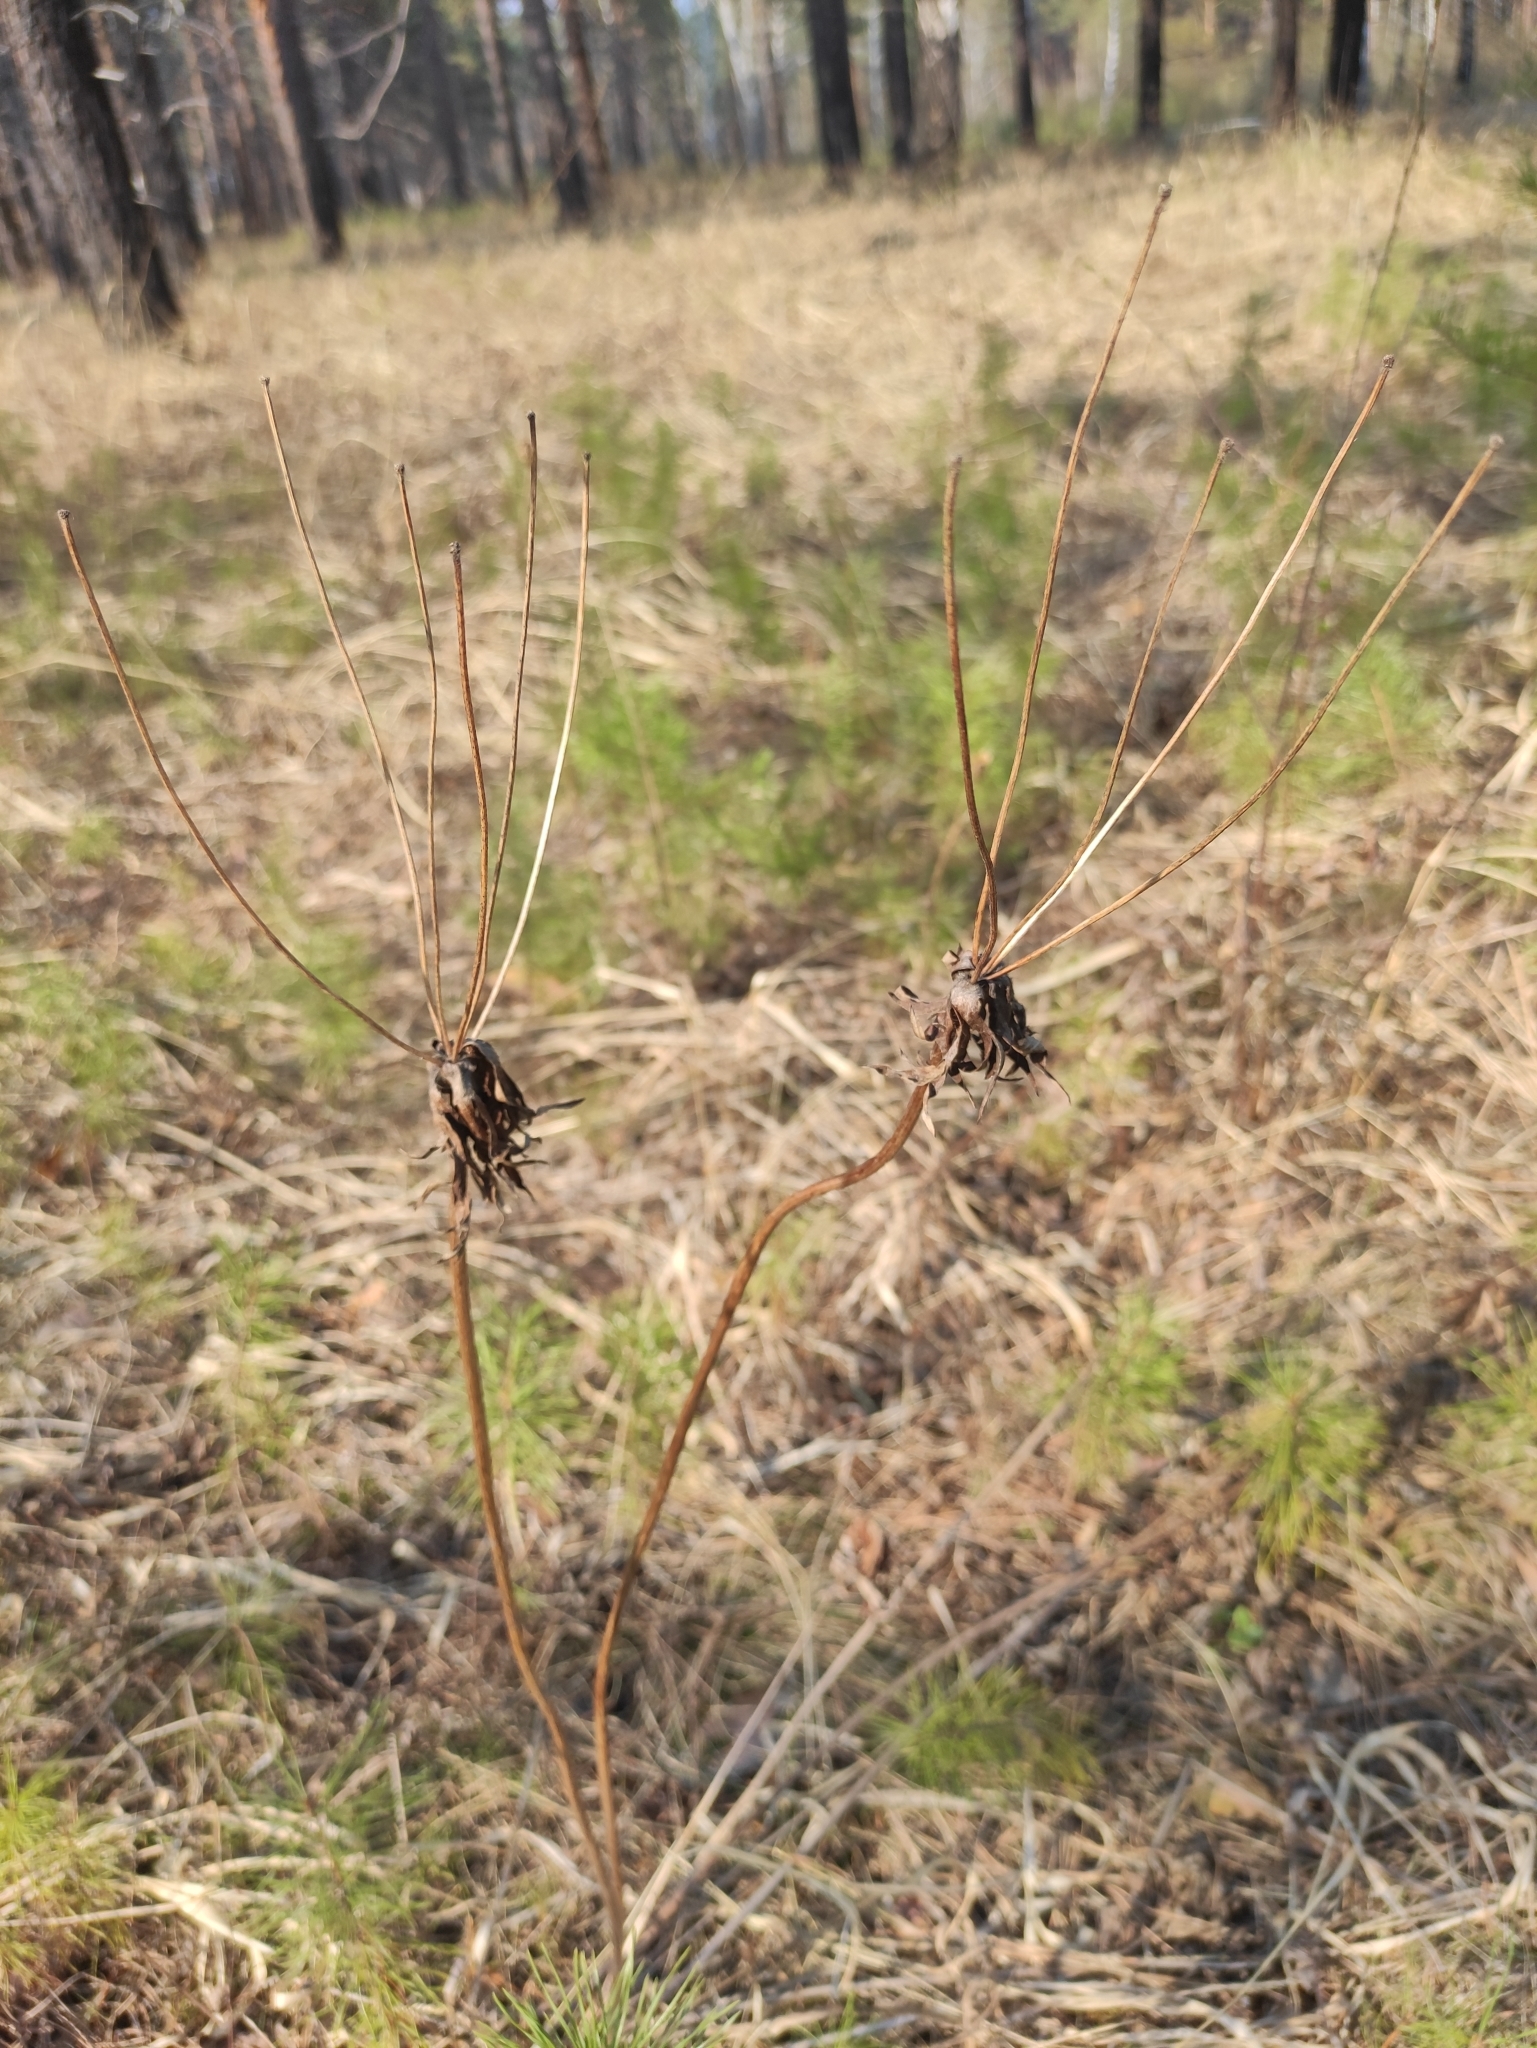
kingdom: Plantae
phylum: Tracheophyta
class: Magnoliopsida
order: Ranunculales
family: Ranunculaceae
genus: Anemonastrum
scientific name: Anemonastrum narcissiflorum
